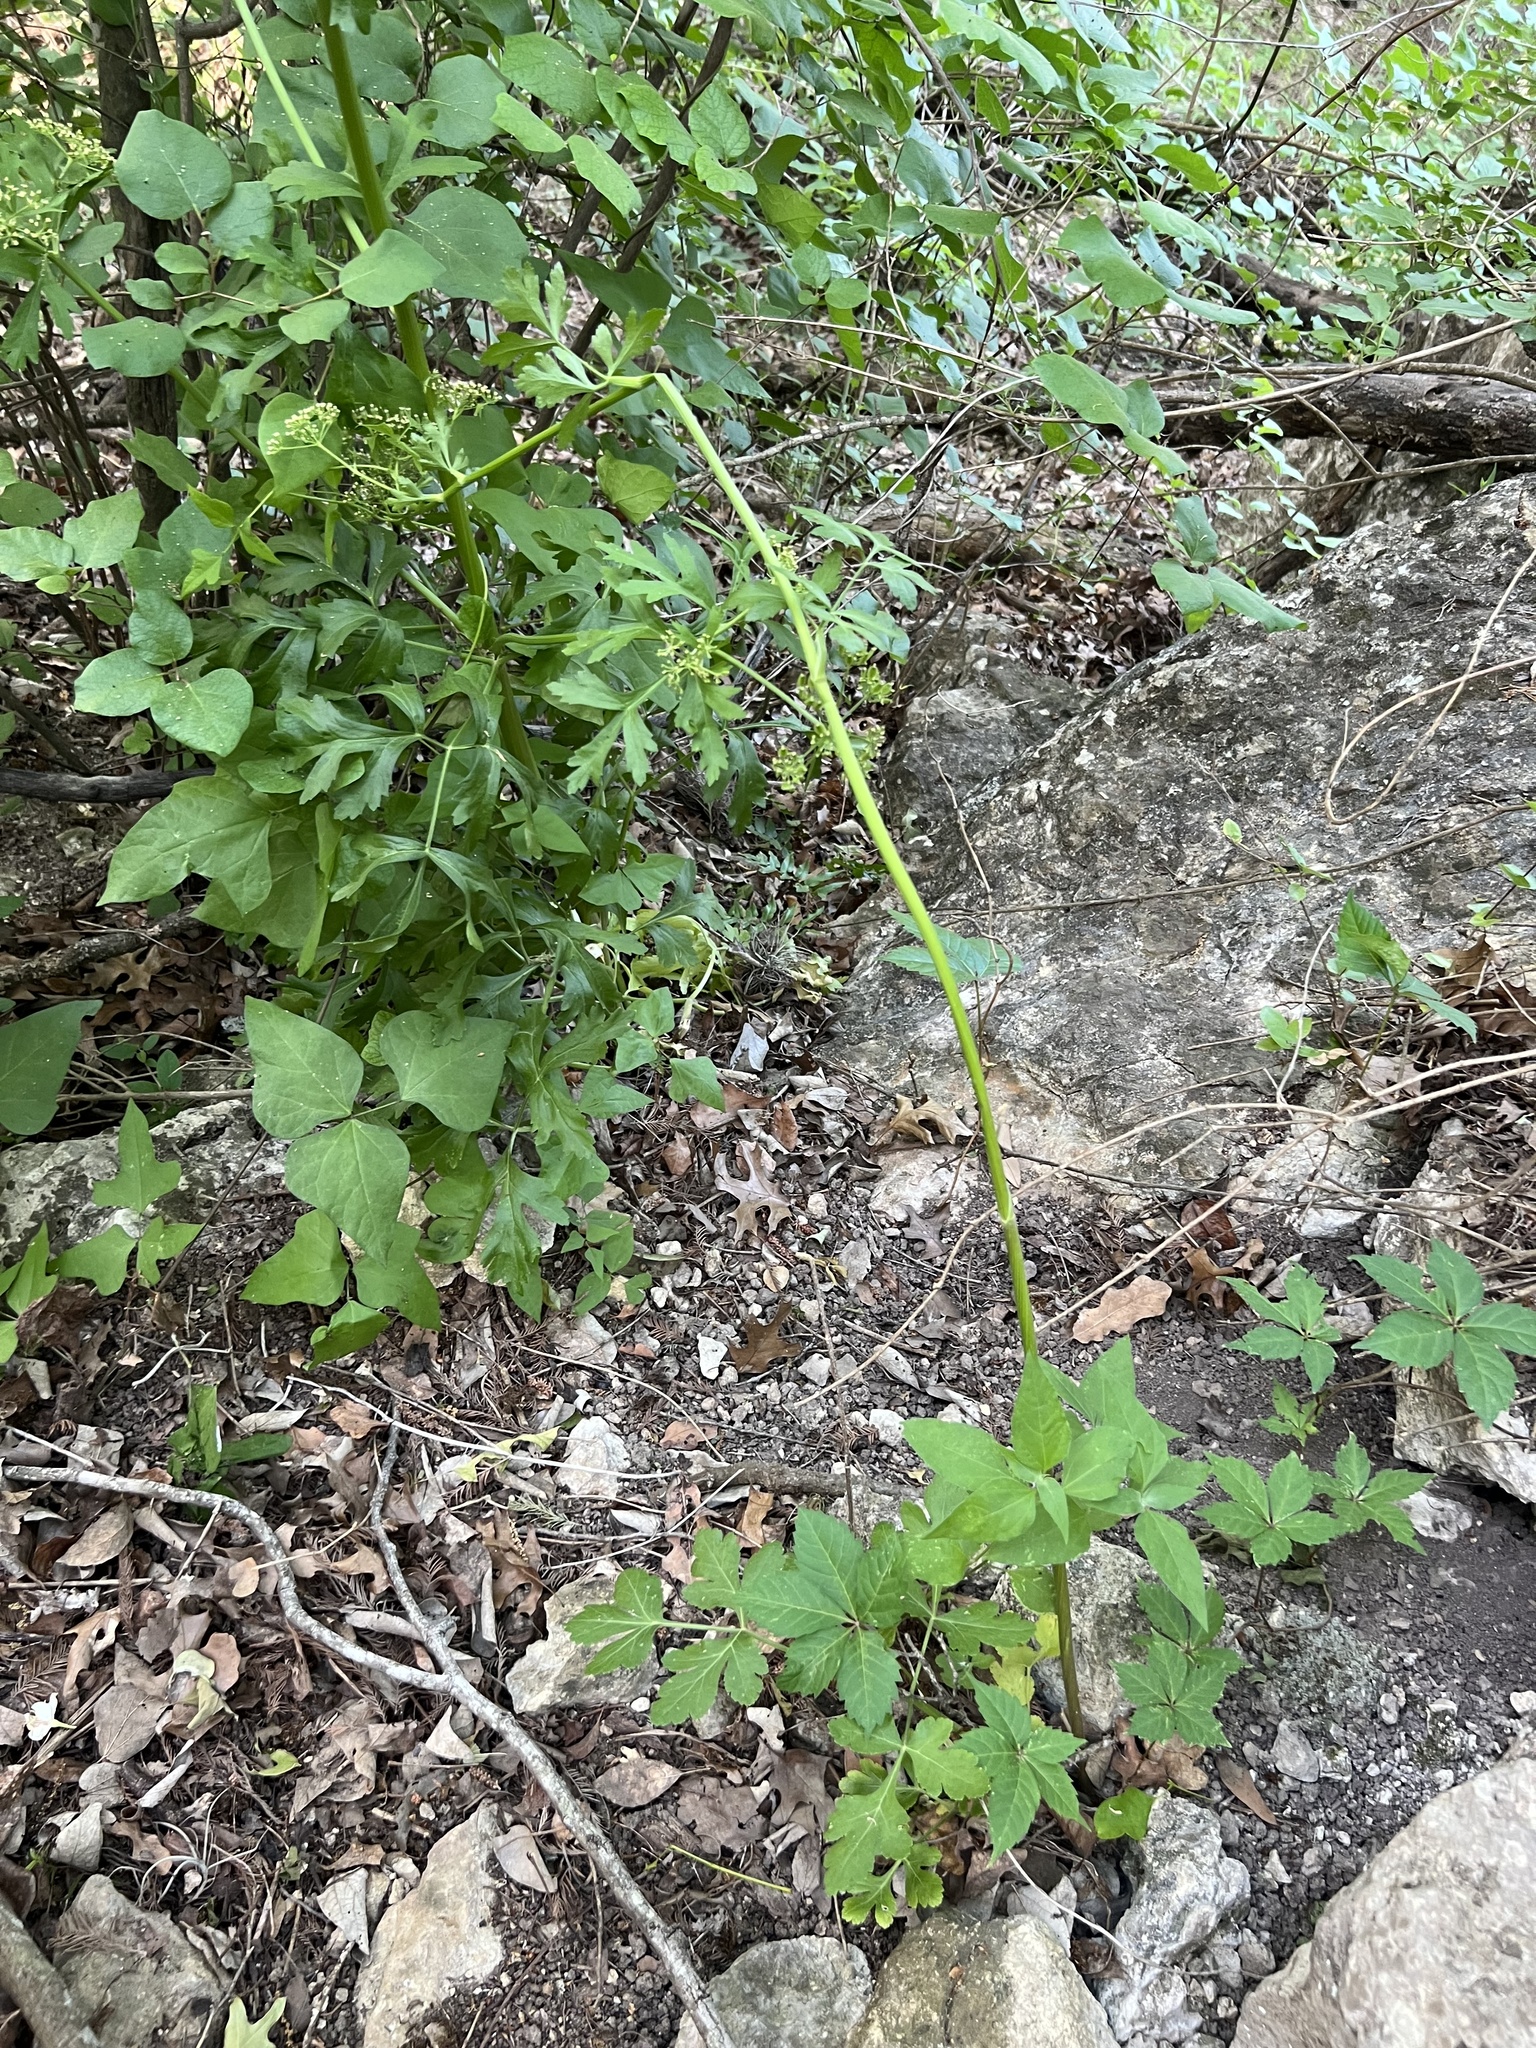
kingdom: Plantae
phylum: Tracheophyta
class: Magnoliopsida
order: Apiales
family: Apiaceae
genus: Polytaenia
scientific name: Polytaenia albiflora
